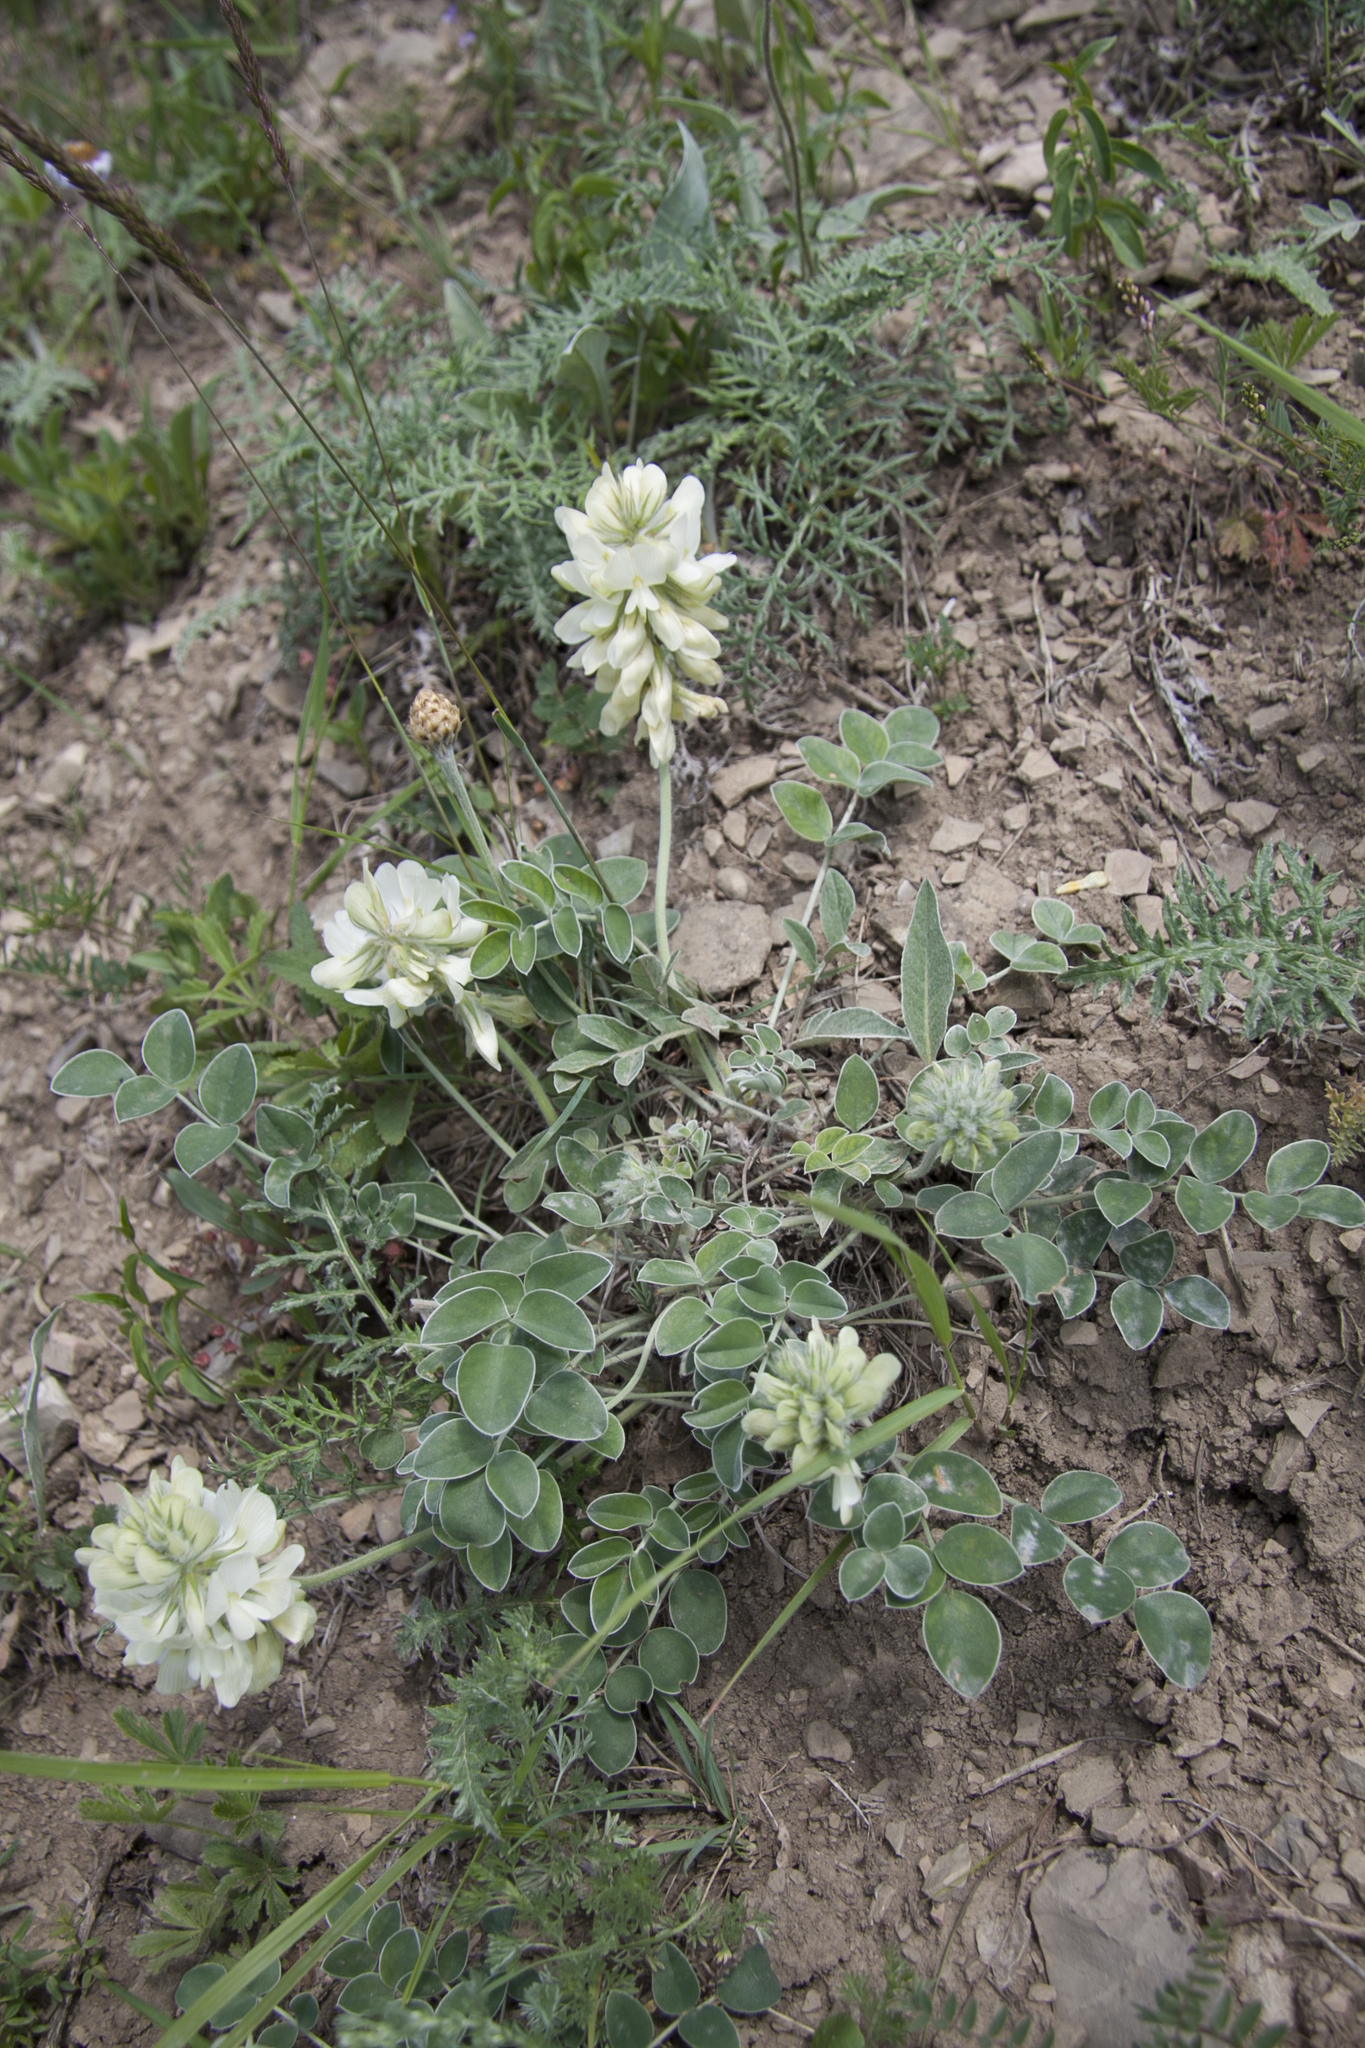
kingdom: Plantae
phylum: Tracheophyta
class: Magnoliopsida
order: Fabales
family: Fabaceae
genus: Hedysarum
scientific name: Hedysarum gmelinii
